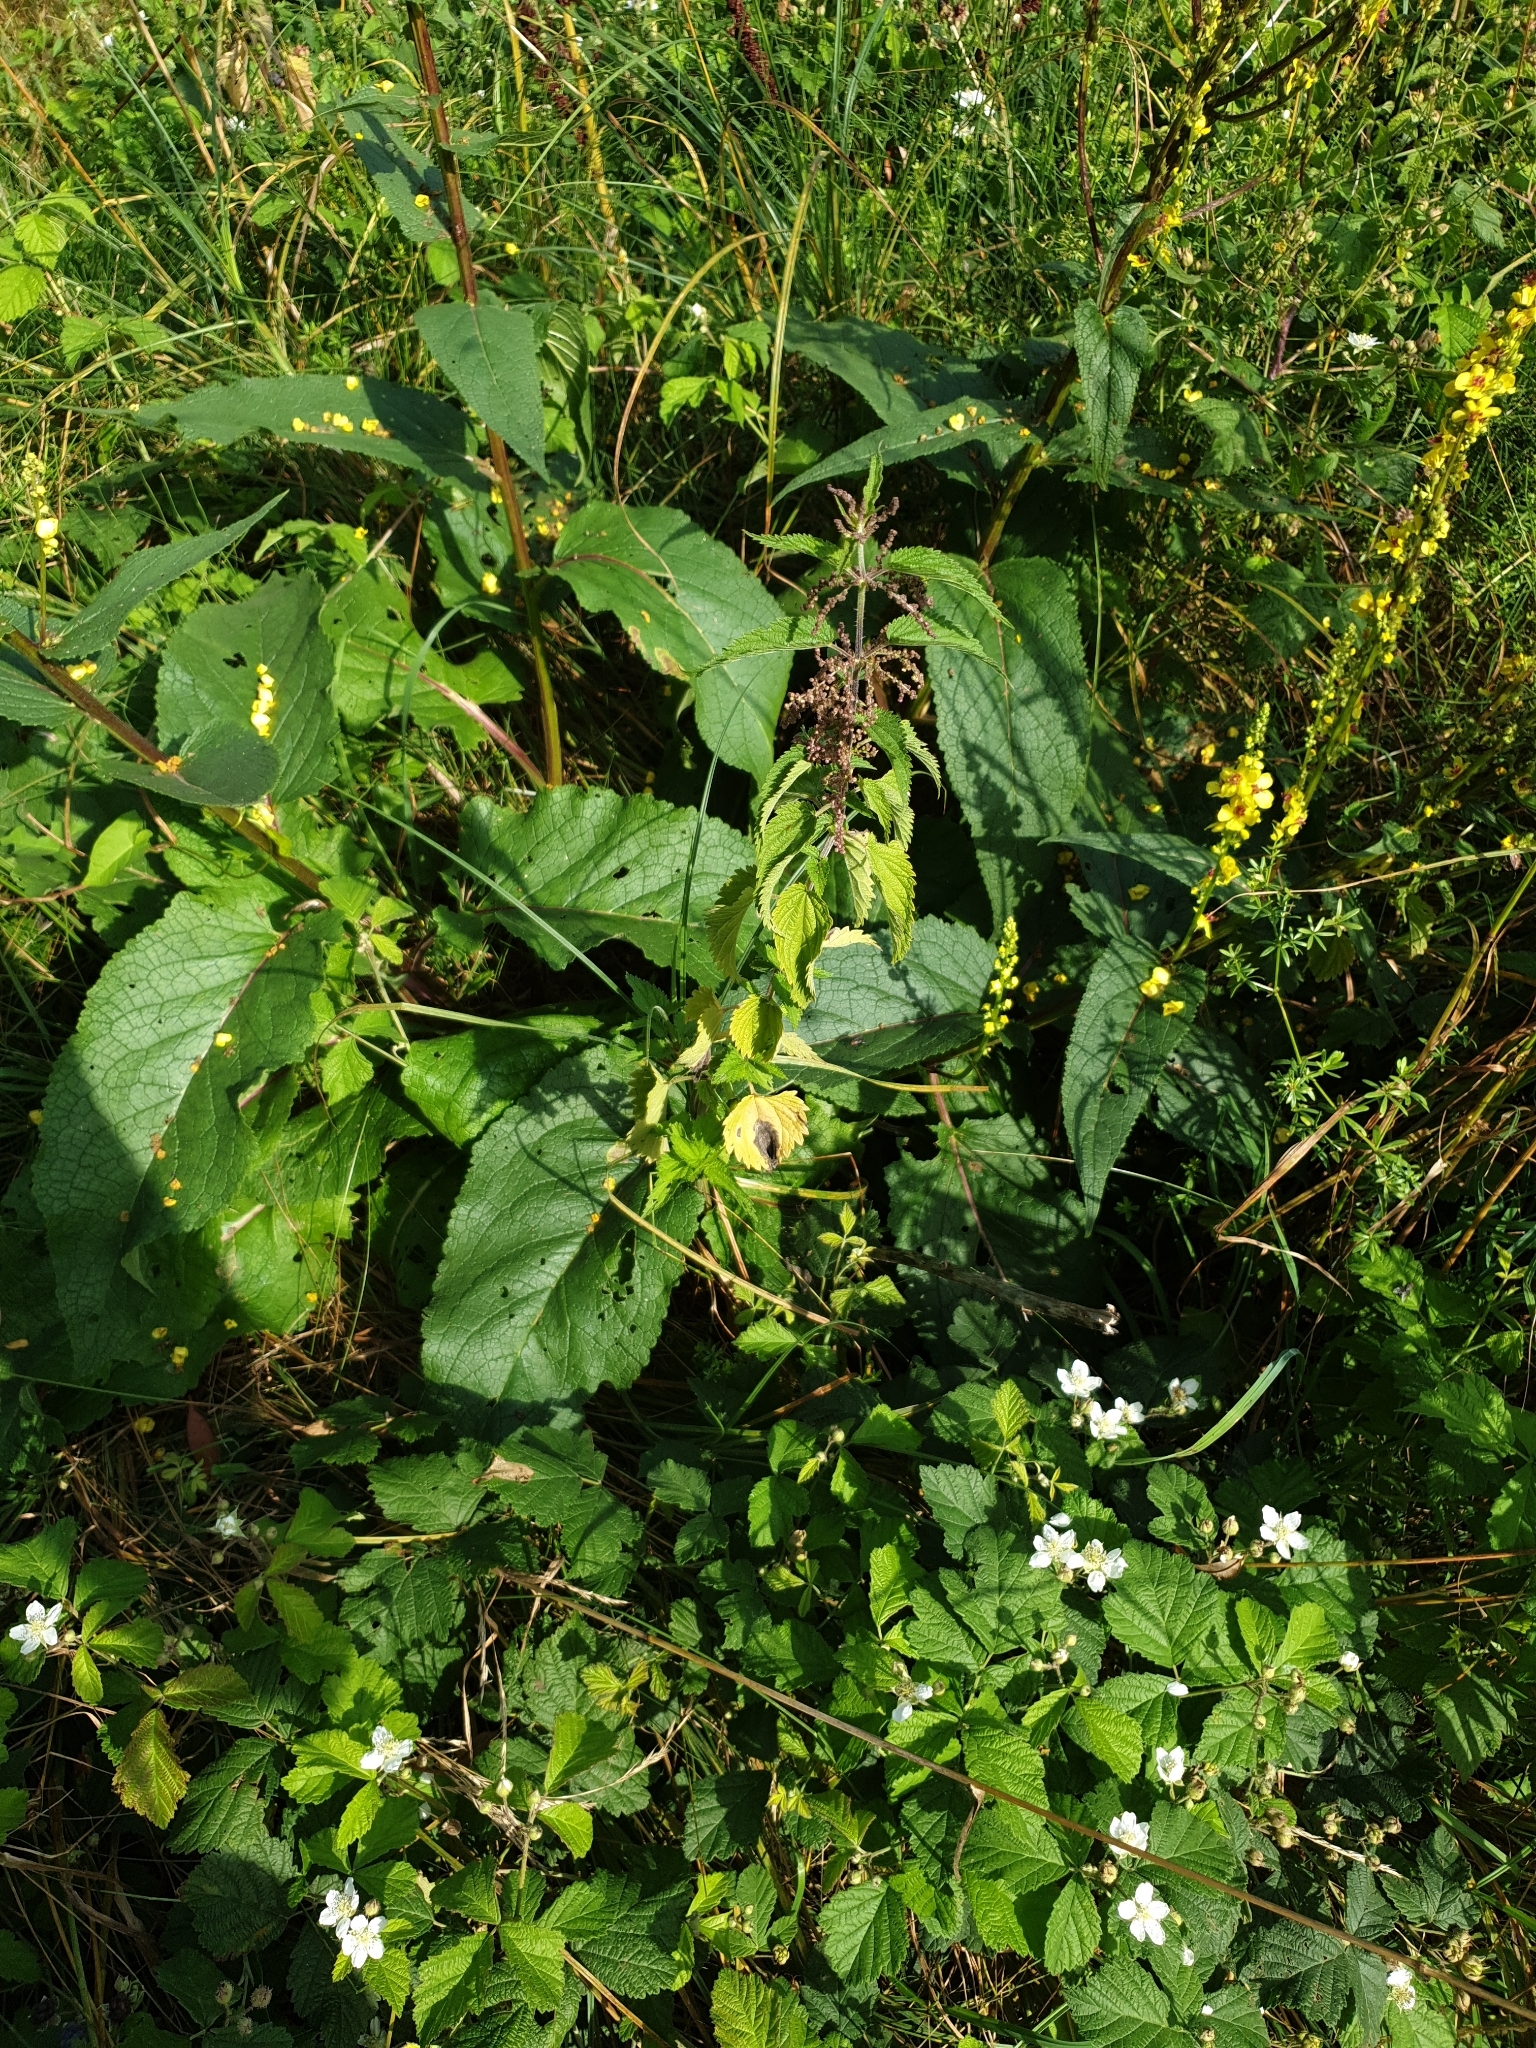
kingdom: Plantae
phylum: Tracheophyta
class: Magnoliopsida
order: Lamiales
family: Lamiaceae
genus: Stachys
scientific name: Stachys sylvatica
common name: Hedge woundwort
